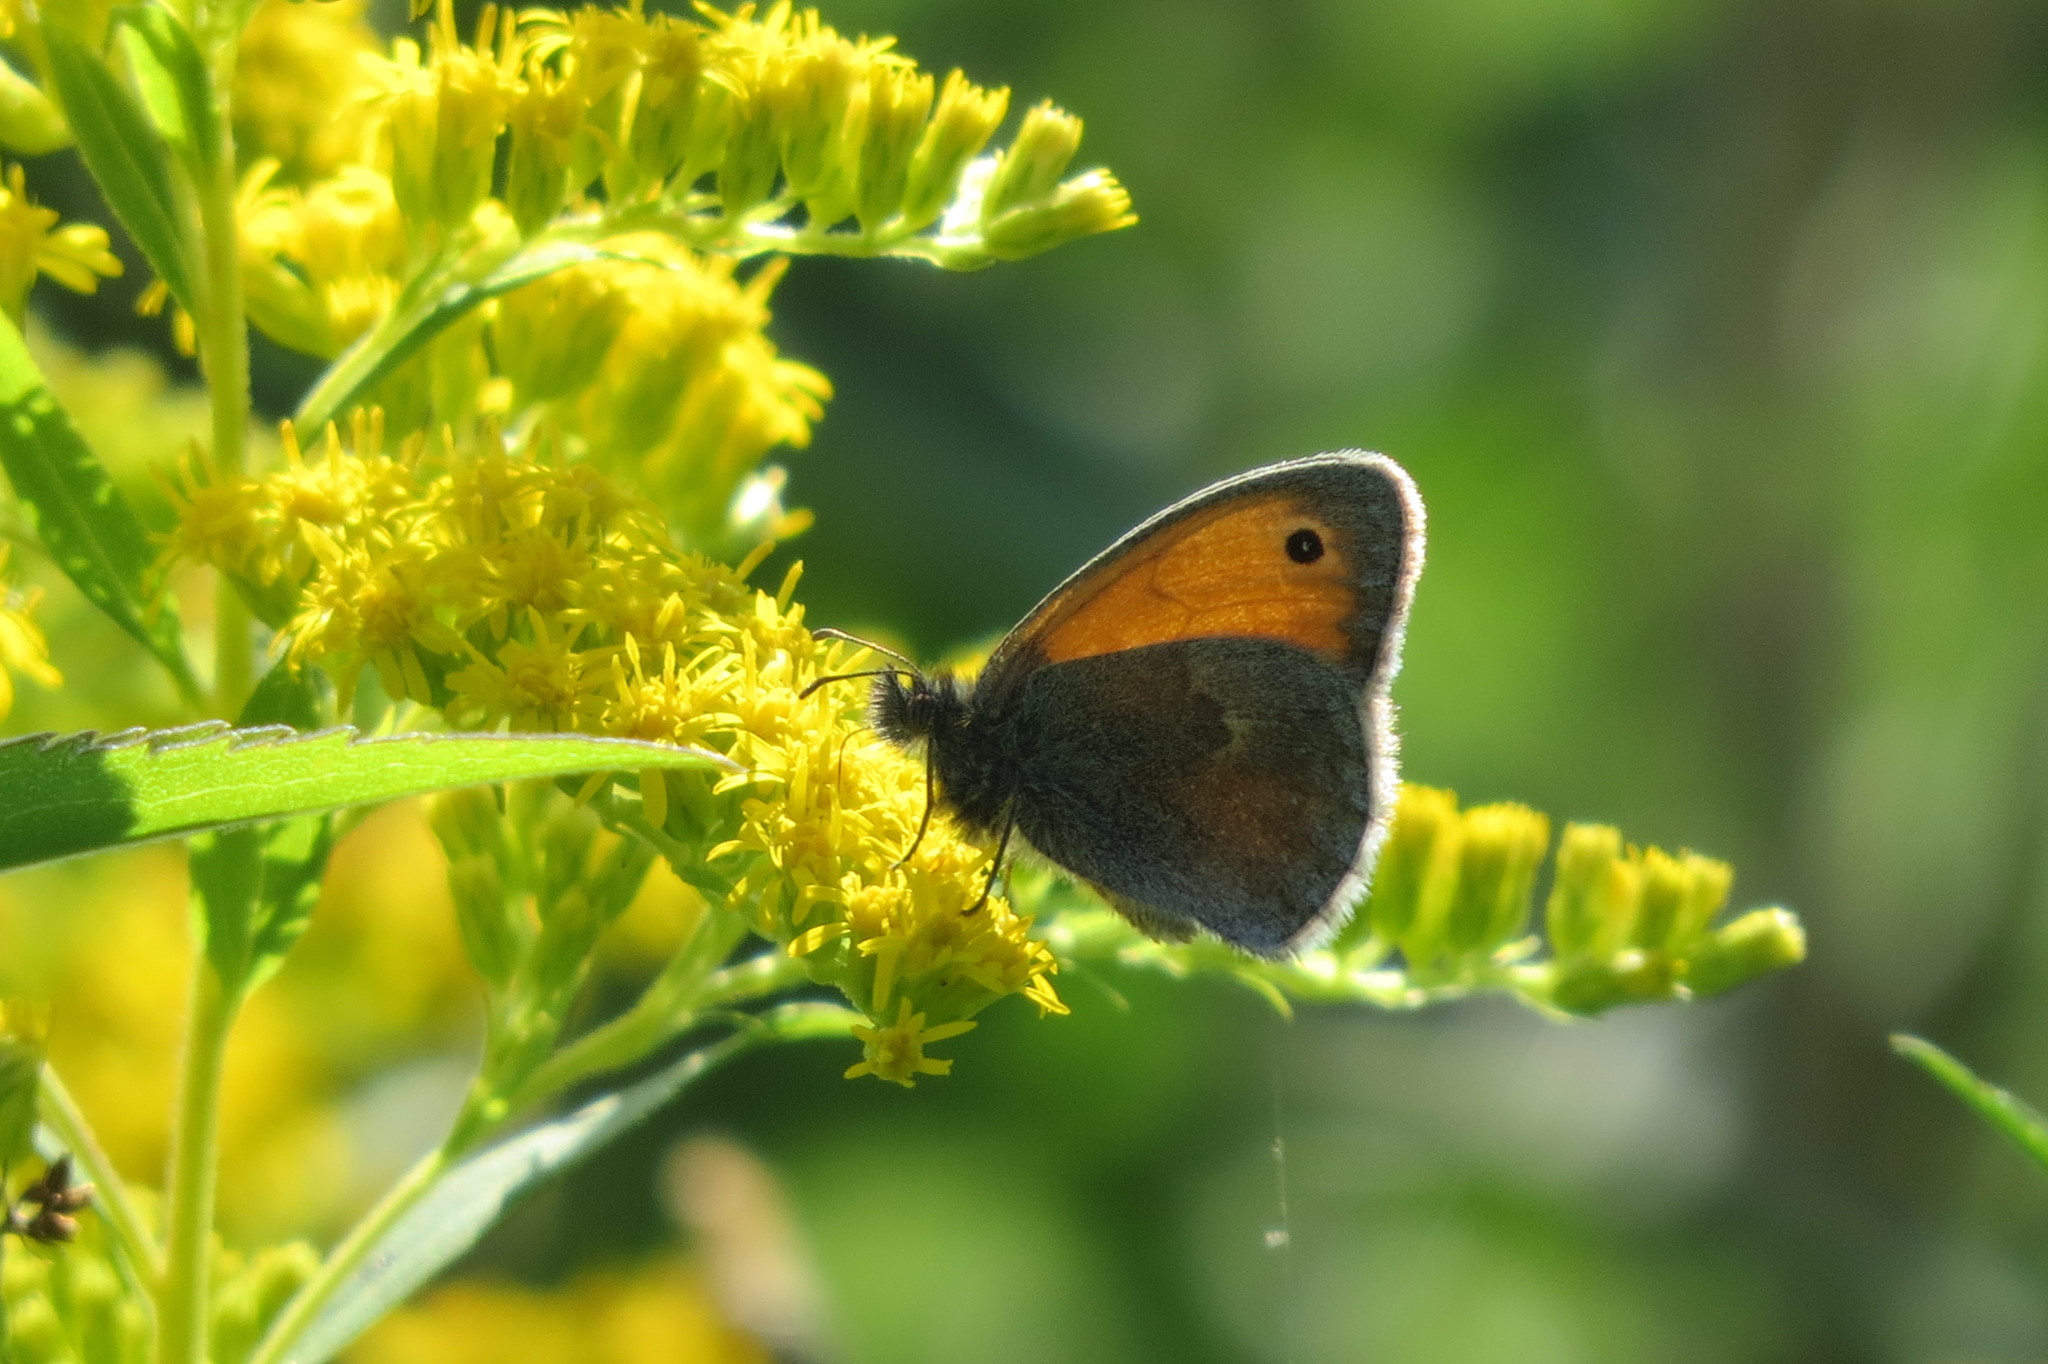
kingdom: Animalia
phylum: Arthropoda
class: Insecta
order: Lepidoptera
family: Nymphalidae
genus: Coenonympha
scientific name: Coenonympha pamphilus
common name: Small heath
